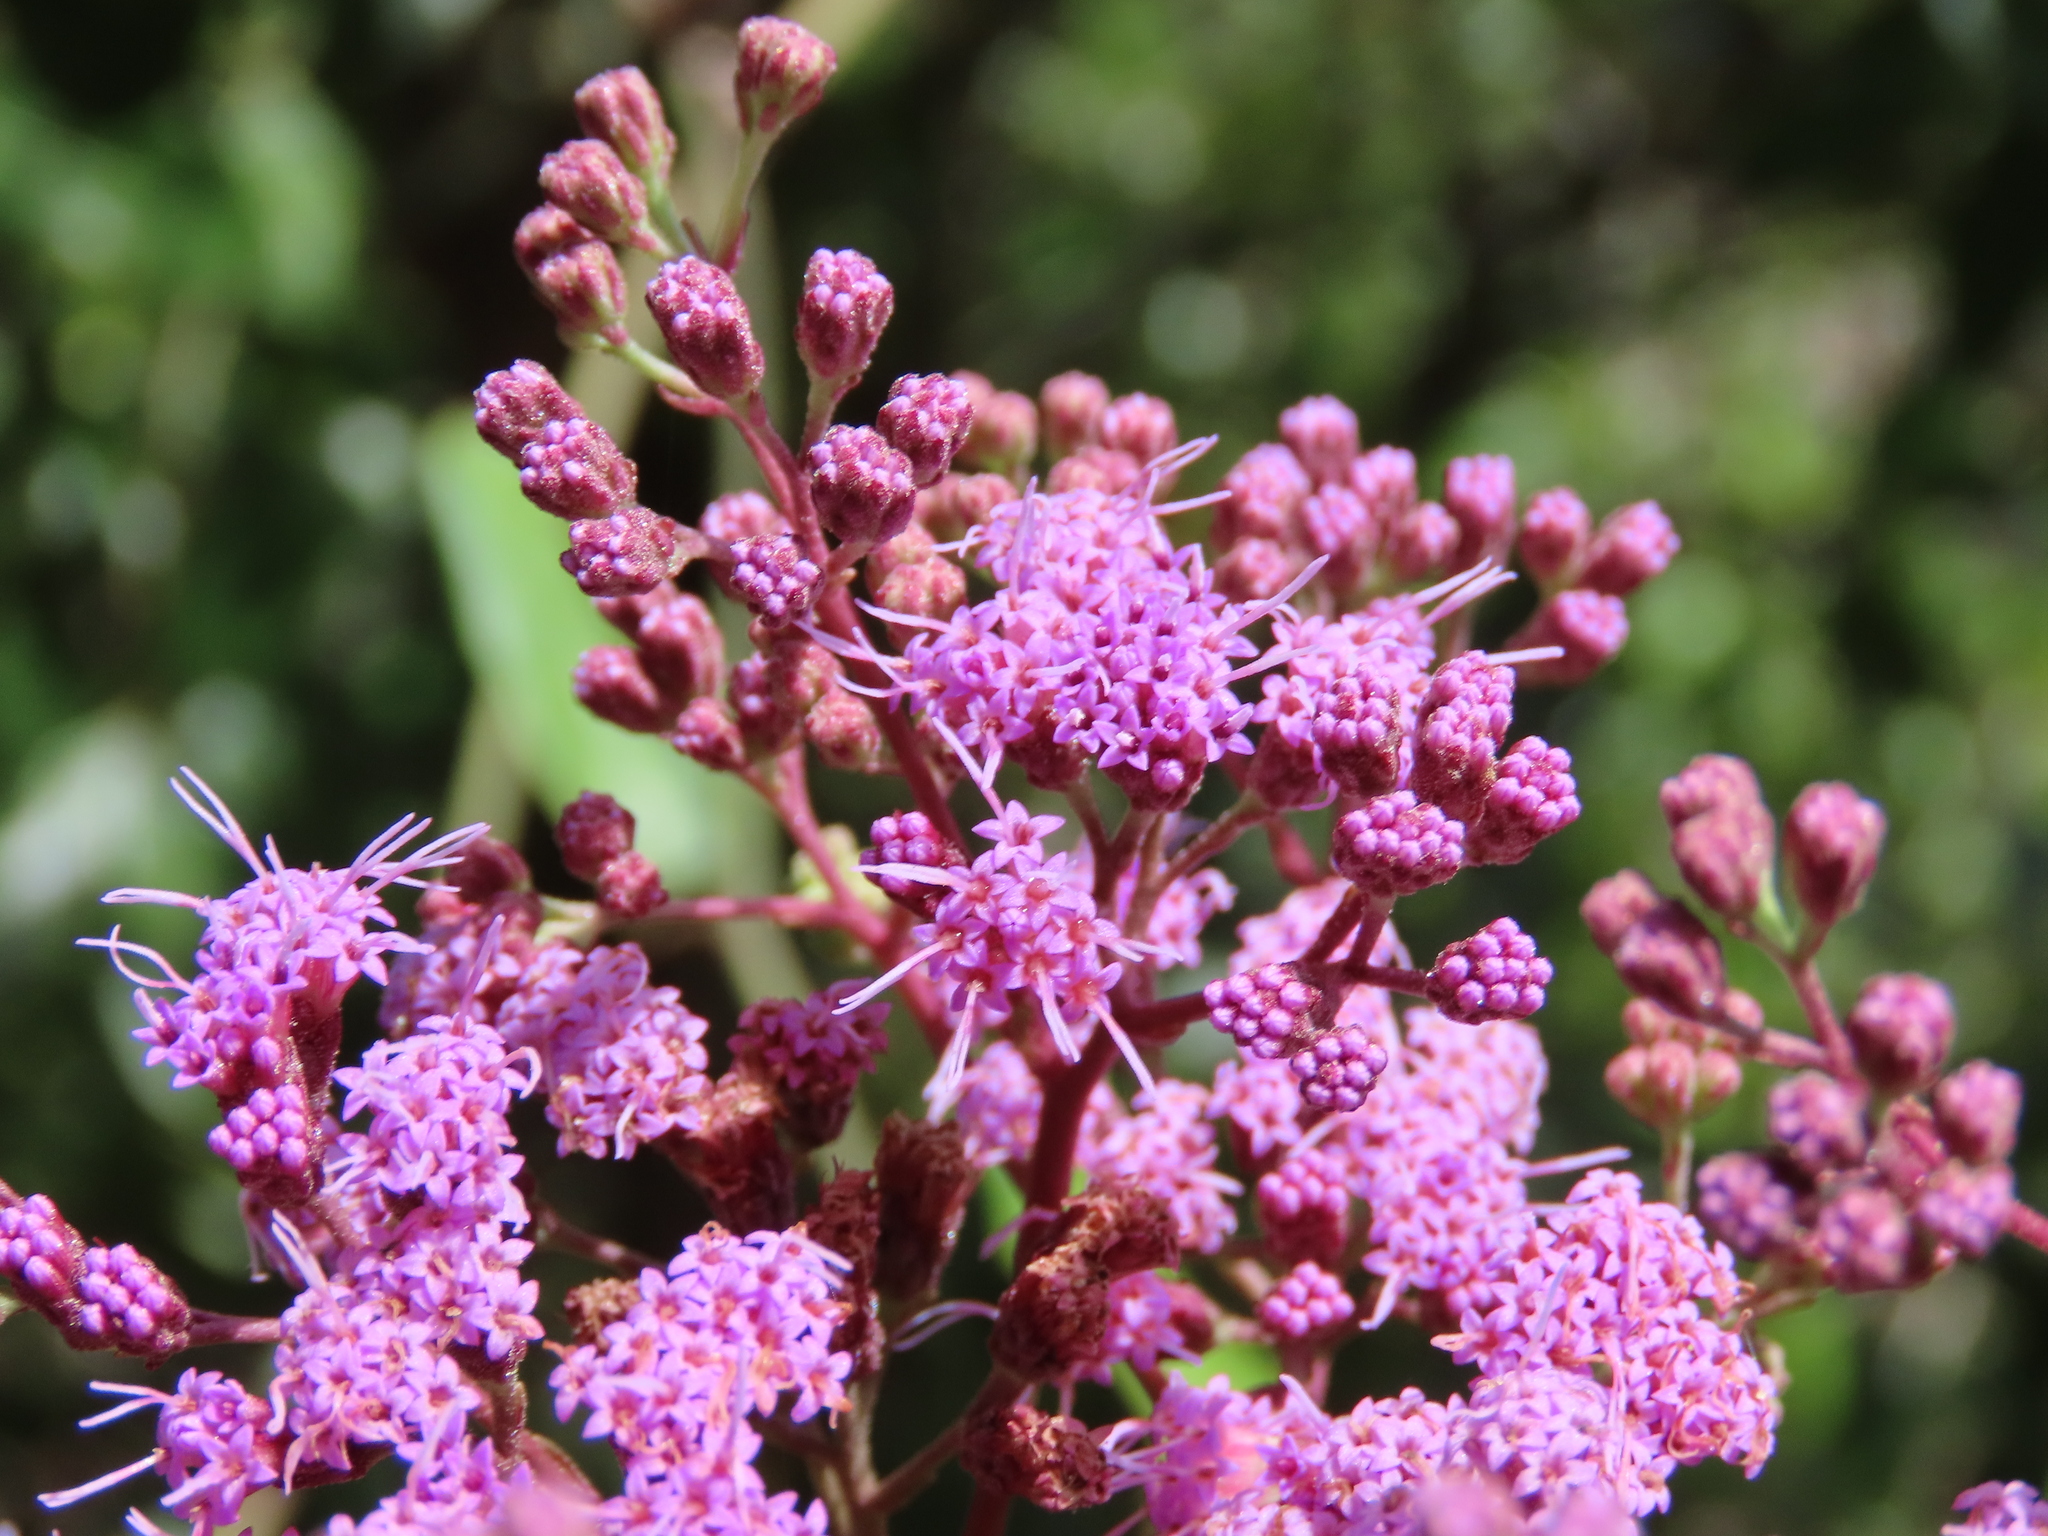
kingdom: Plantae
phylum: Tracheophyta
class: Magnoliopsida
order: Asterales
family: Asteraceae
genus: Carphephorus
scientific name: Carphephorus odoratissimus
